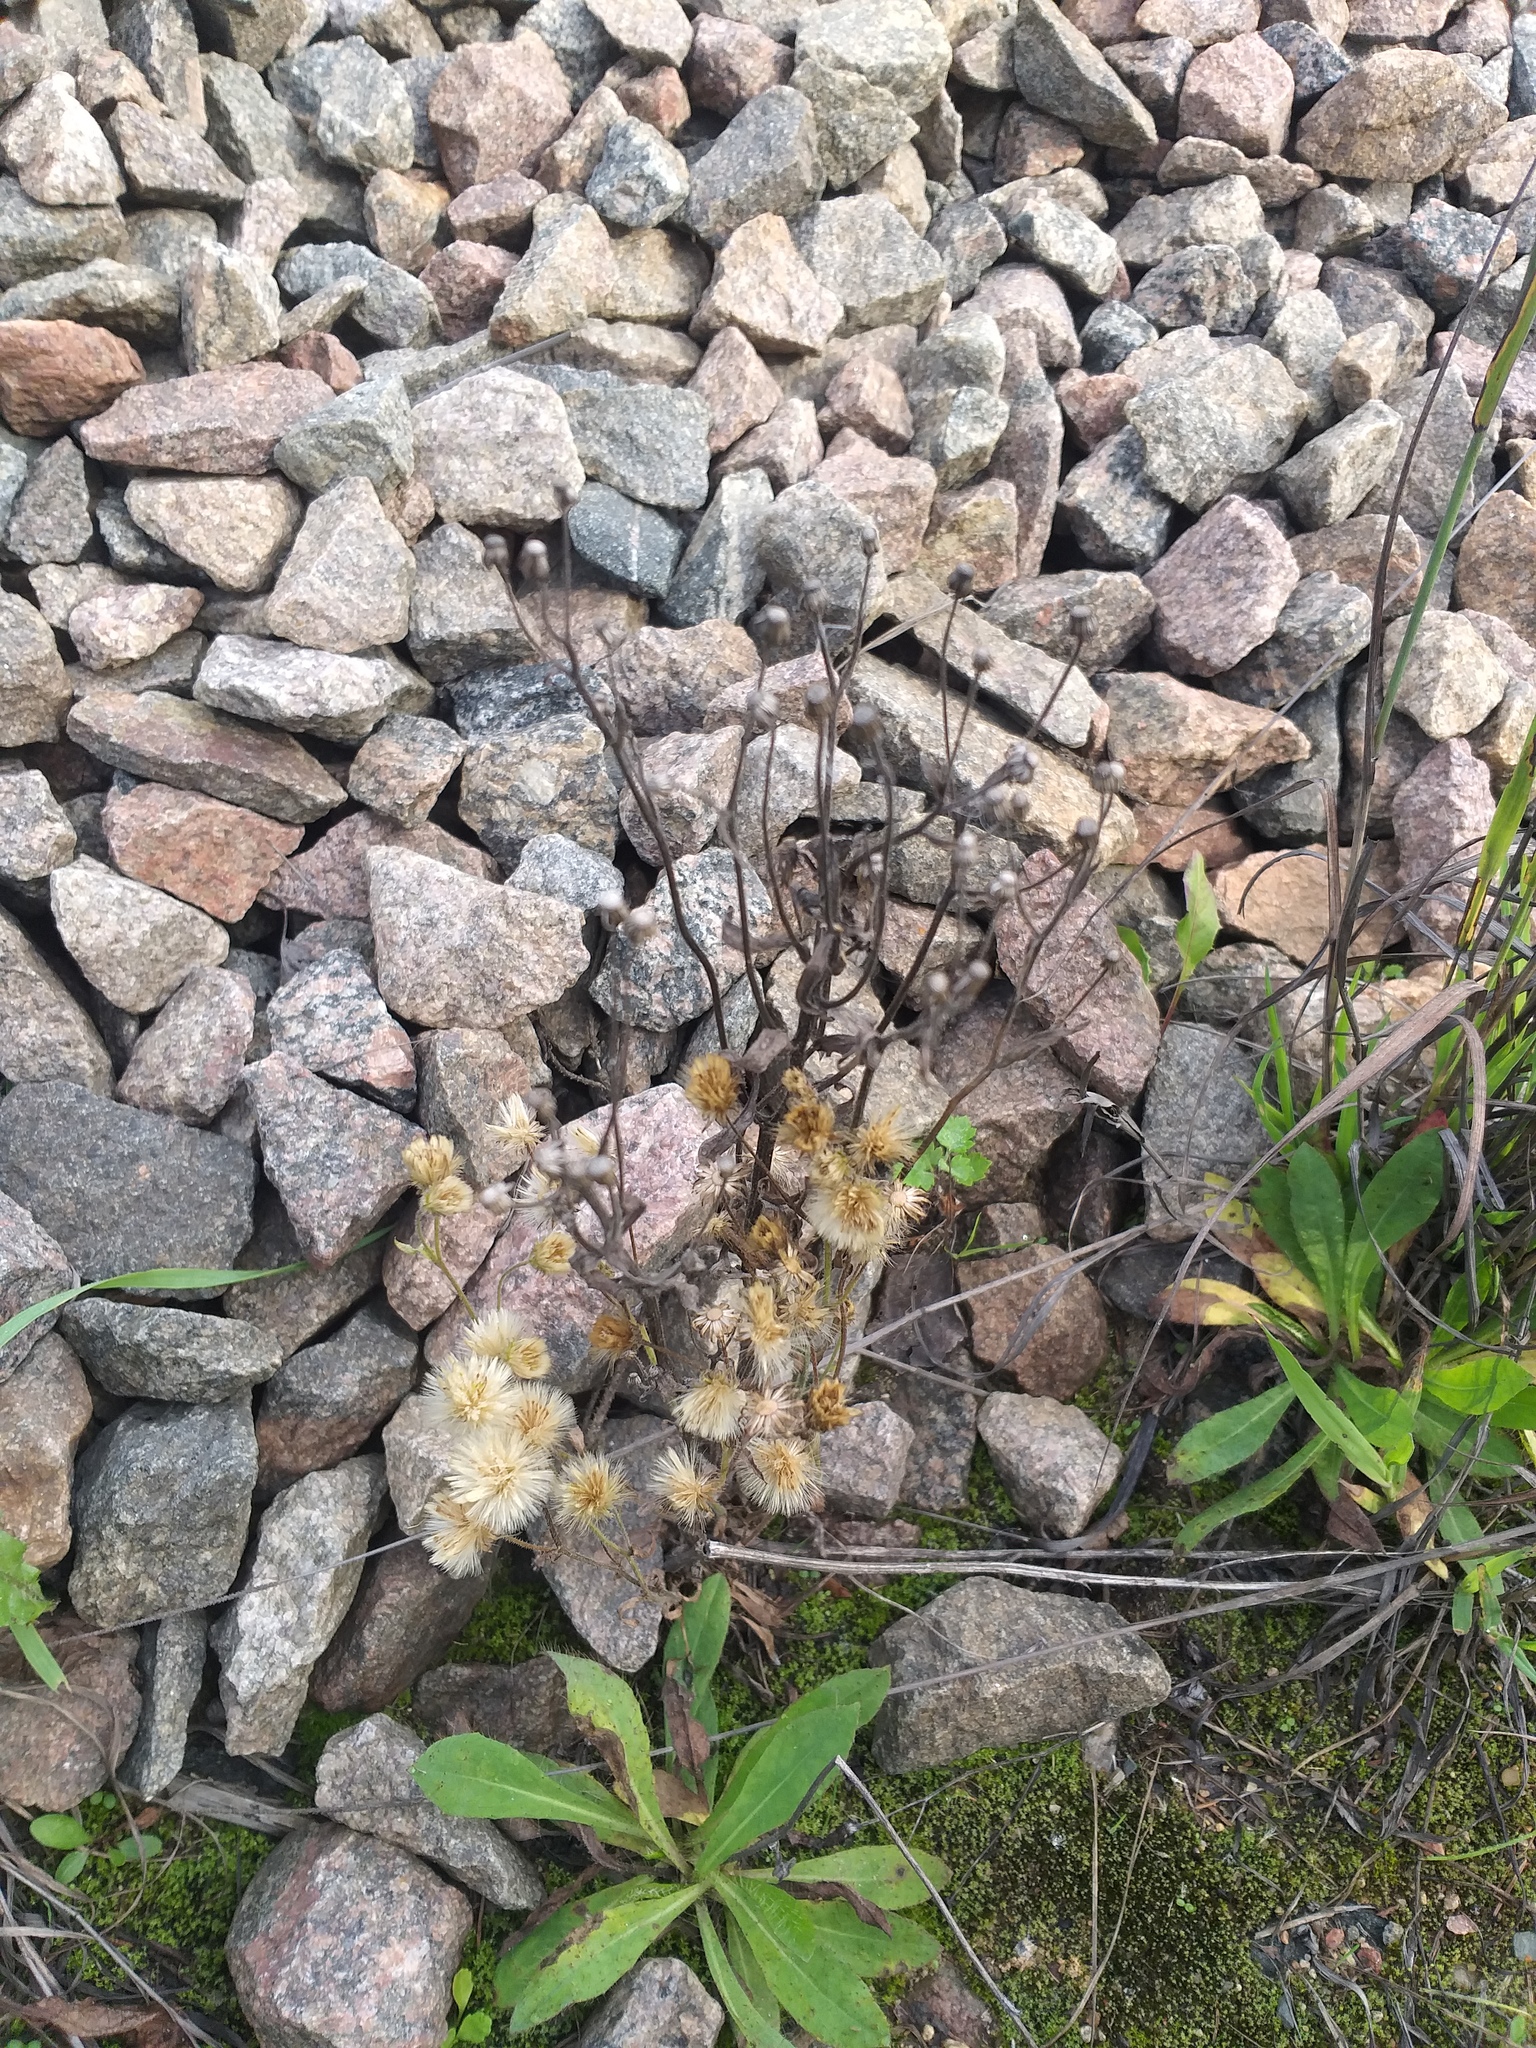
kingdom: Plantae
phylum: Tracheophyta
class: Magnoliopsida
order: Asterales
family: Asteraceae
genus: Erigeron
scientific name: Erigeron acris
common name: Blue fleabane
